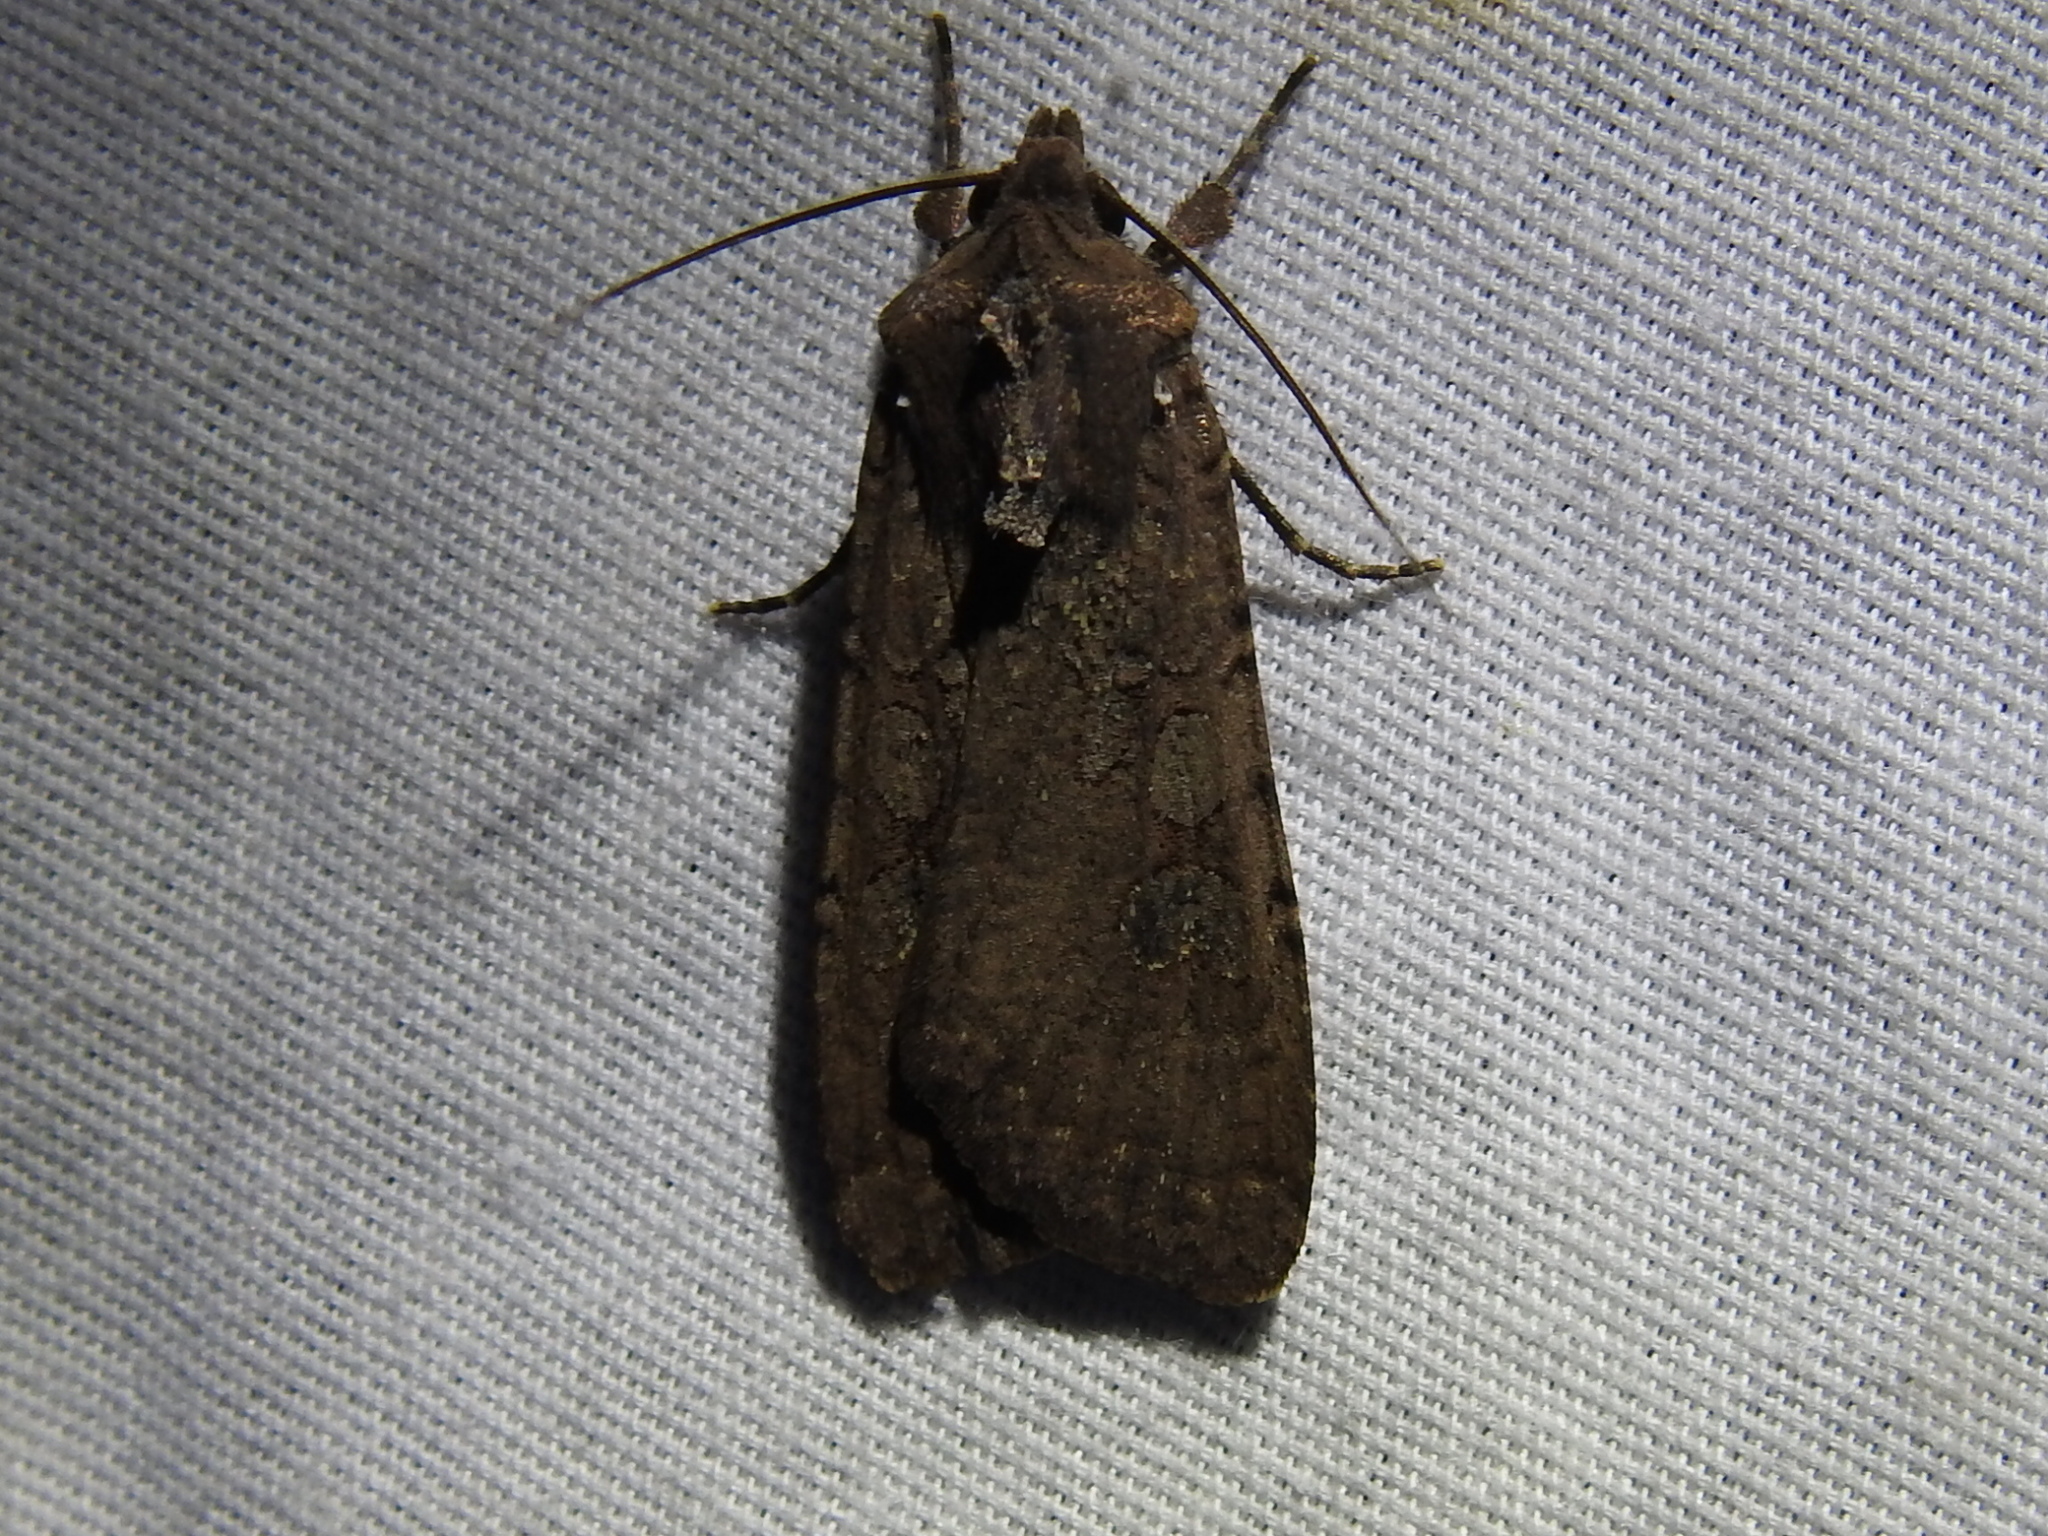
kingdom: Animalia
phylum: Arthropoda
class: Insecta
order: Lepidoptera
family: Noctuidae
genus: Peridroma
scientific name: Peridroma saucia
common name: Pearly underwing
